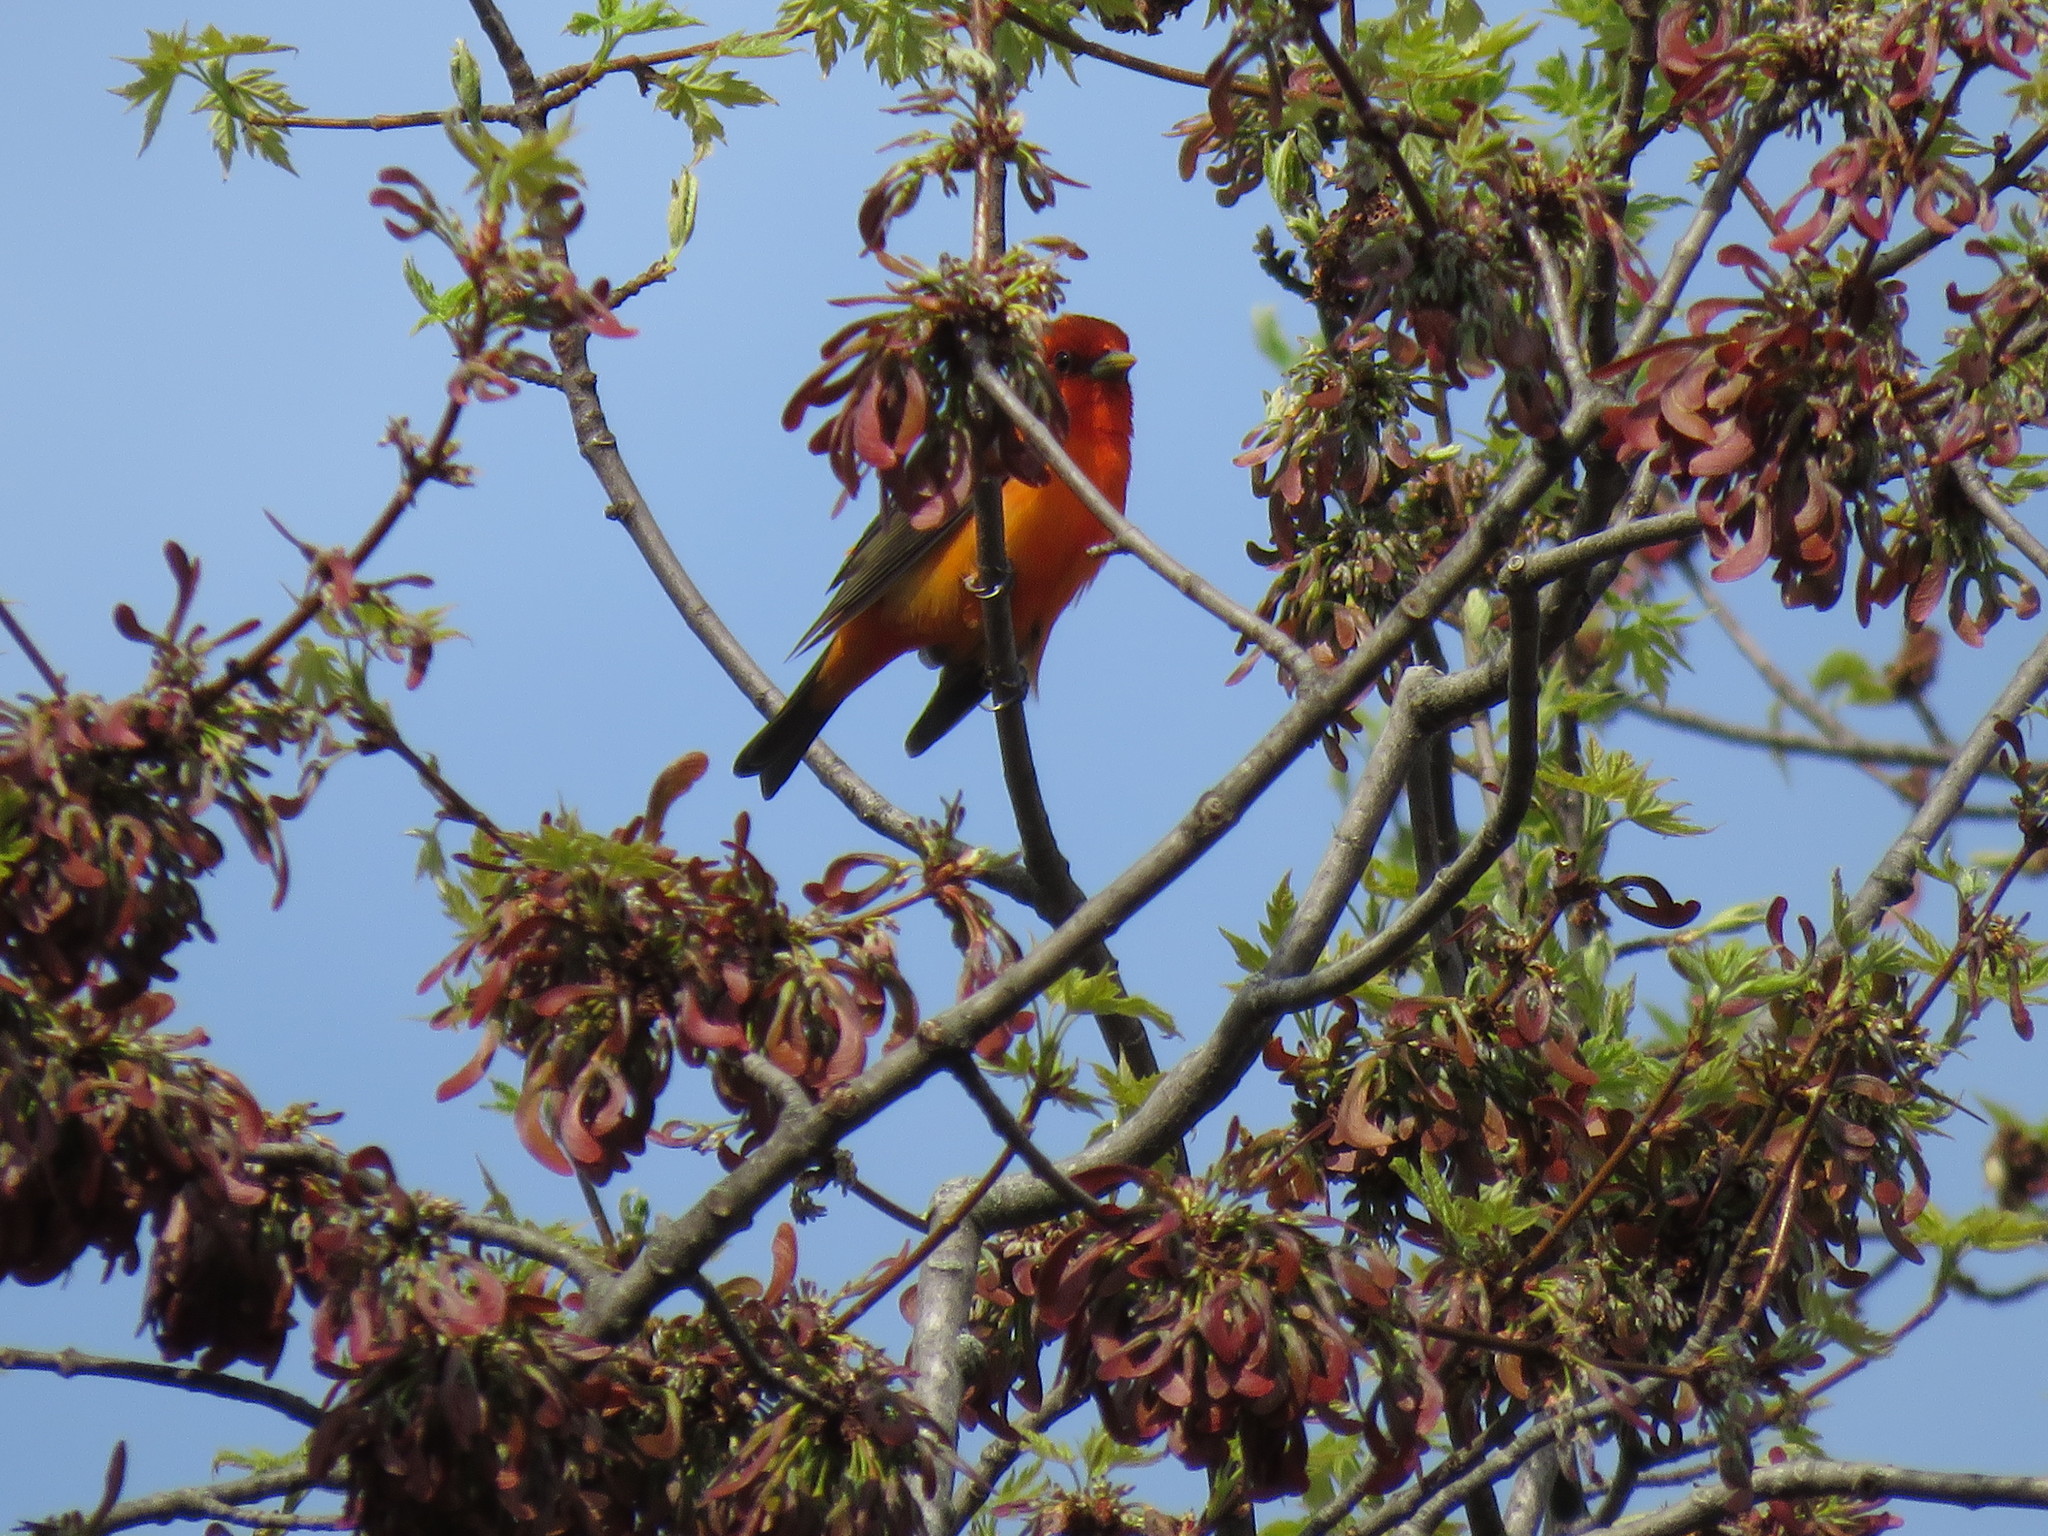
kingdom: Animalia
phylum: Chordata
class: Aves
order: Passeriformes
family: Cardinalidae
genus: Piranga
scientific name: Piranga olivacea
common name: Scarlet tanager
